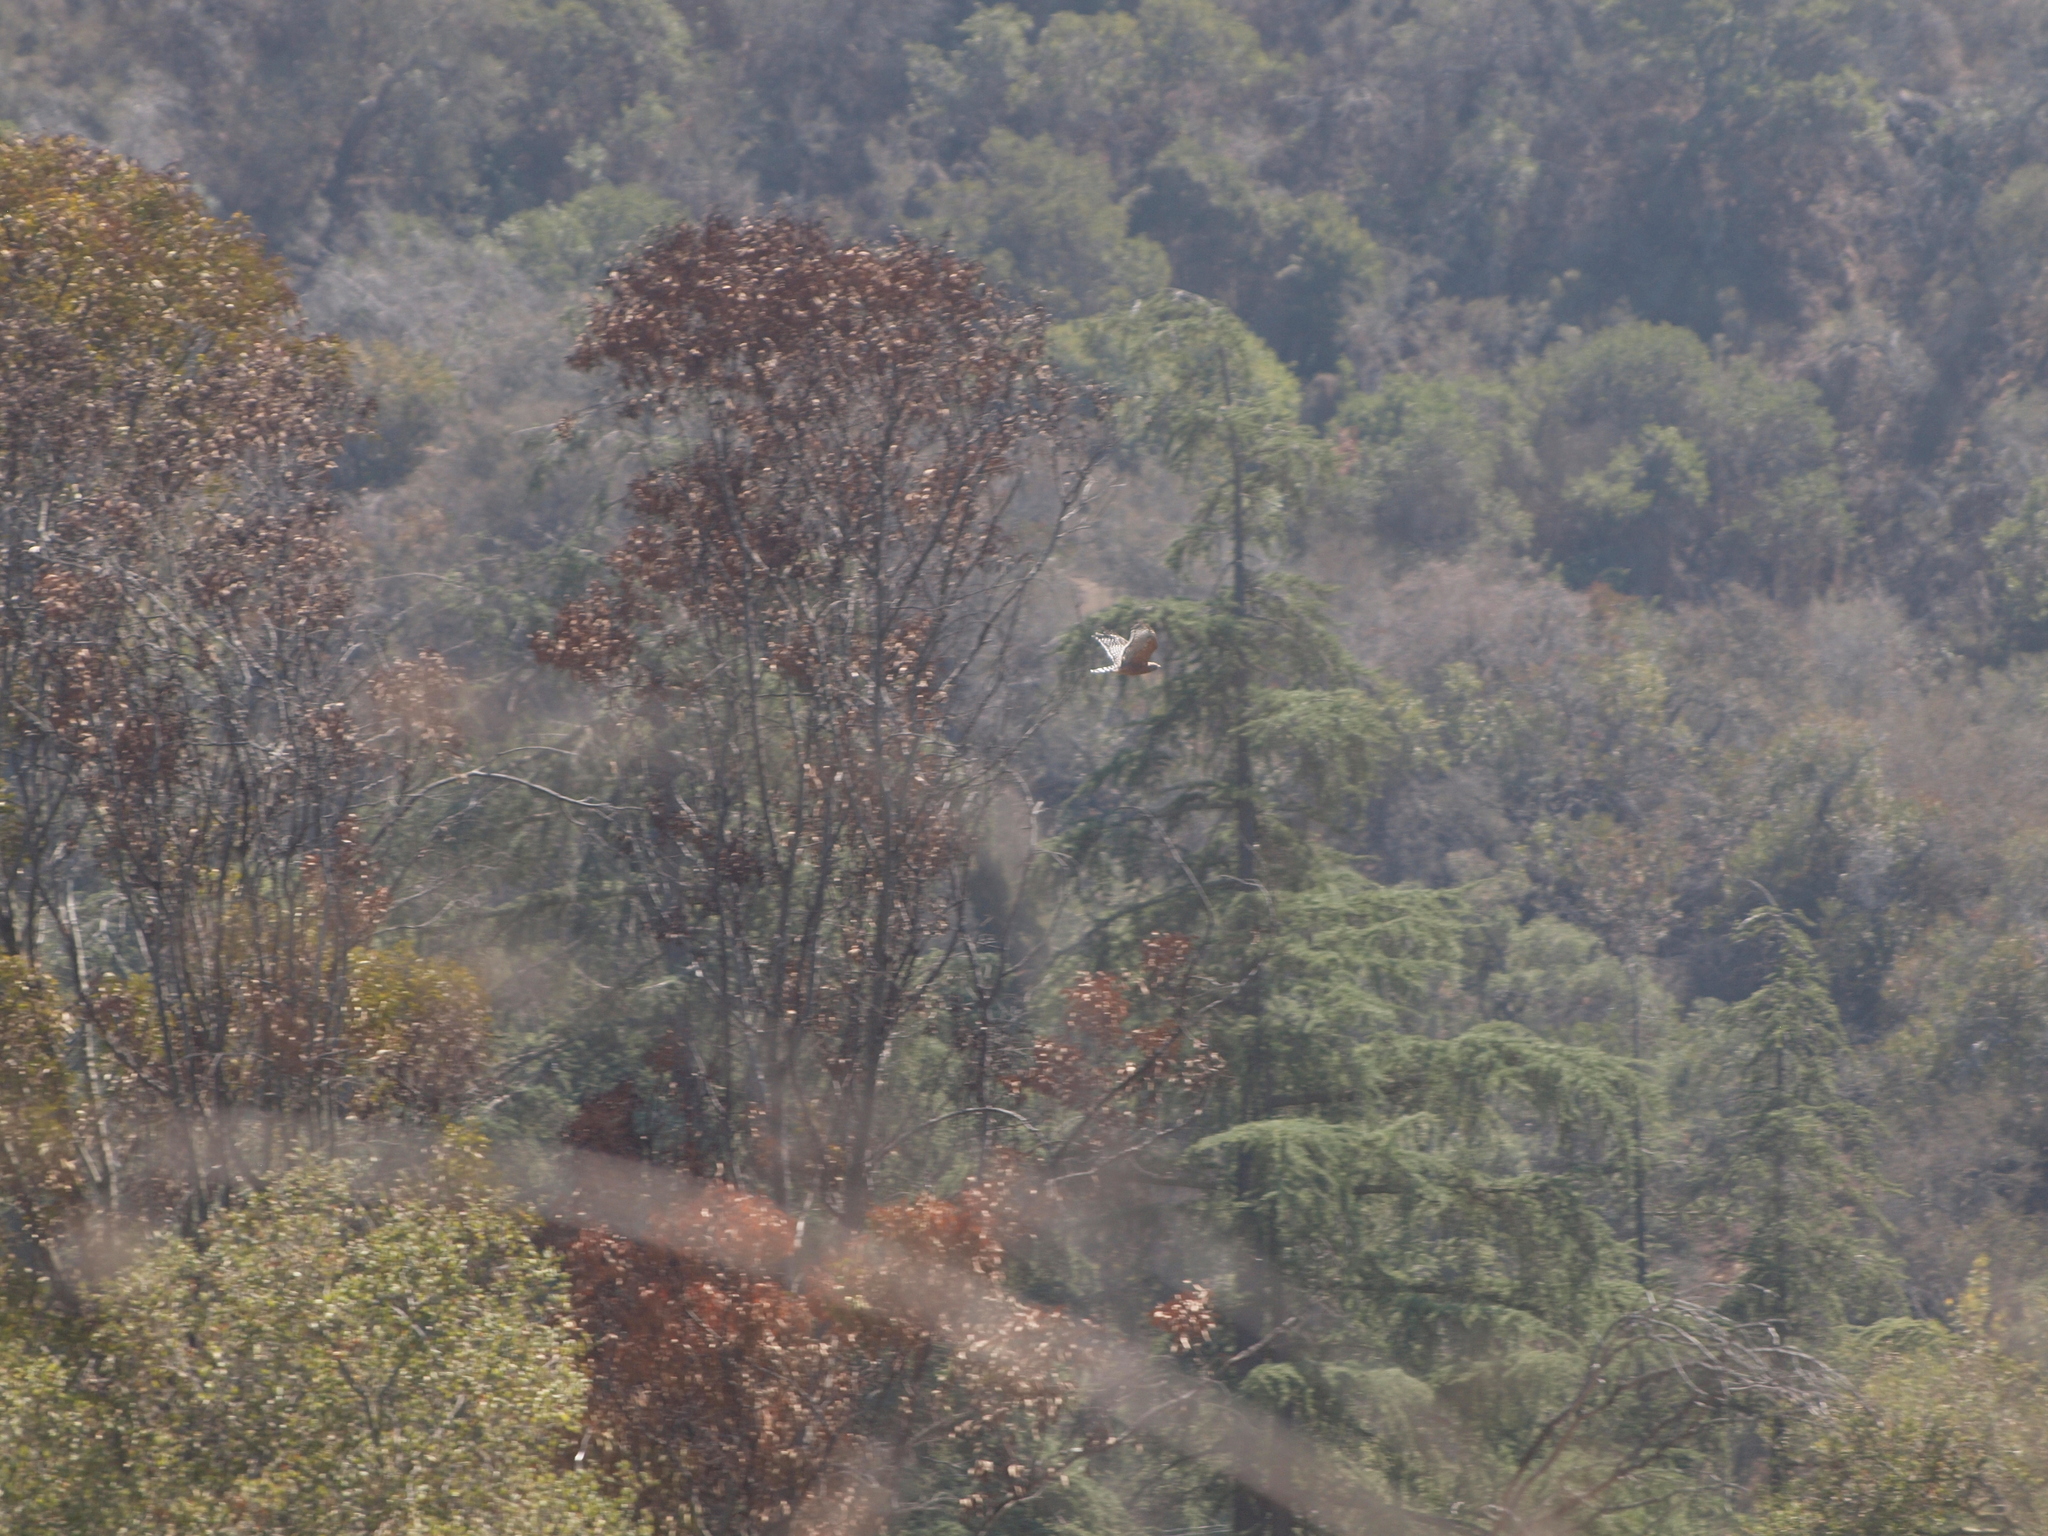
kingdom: Animalia
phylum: Chordata
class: Aves
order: Accipitriformes
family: Accipitridae
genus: Buteo
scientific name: Buteo lineatus
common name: Red-shouldered hawk
